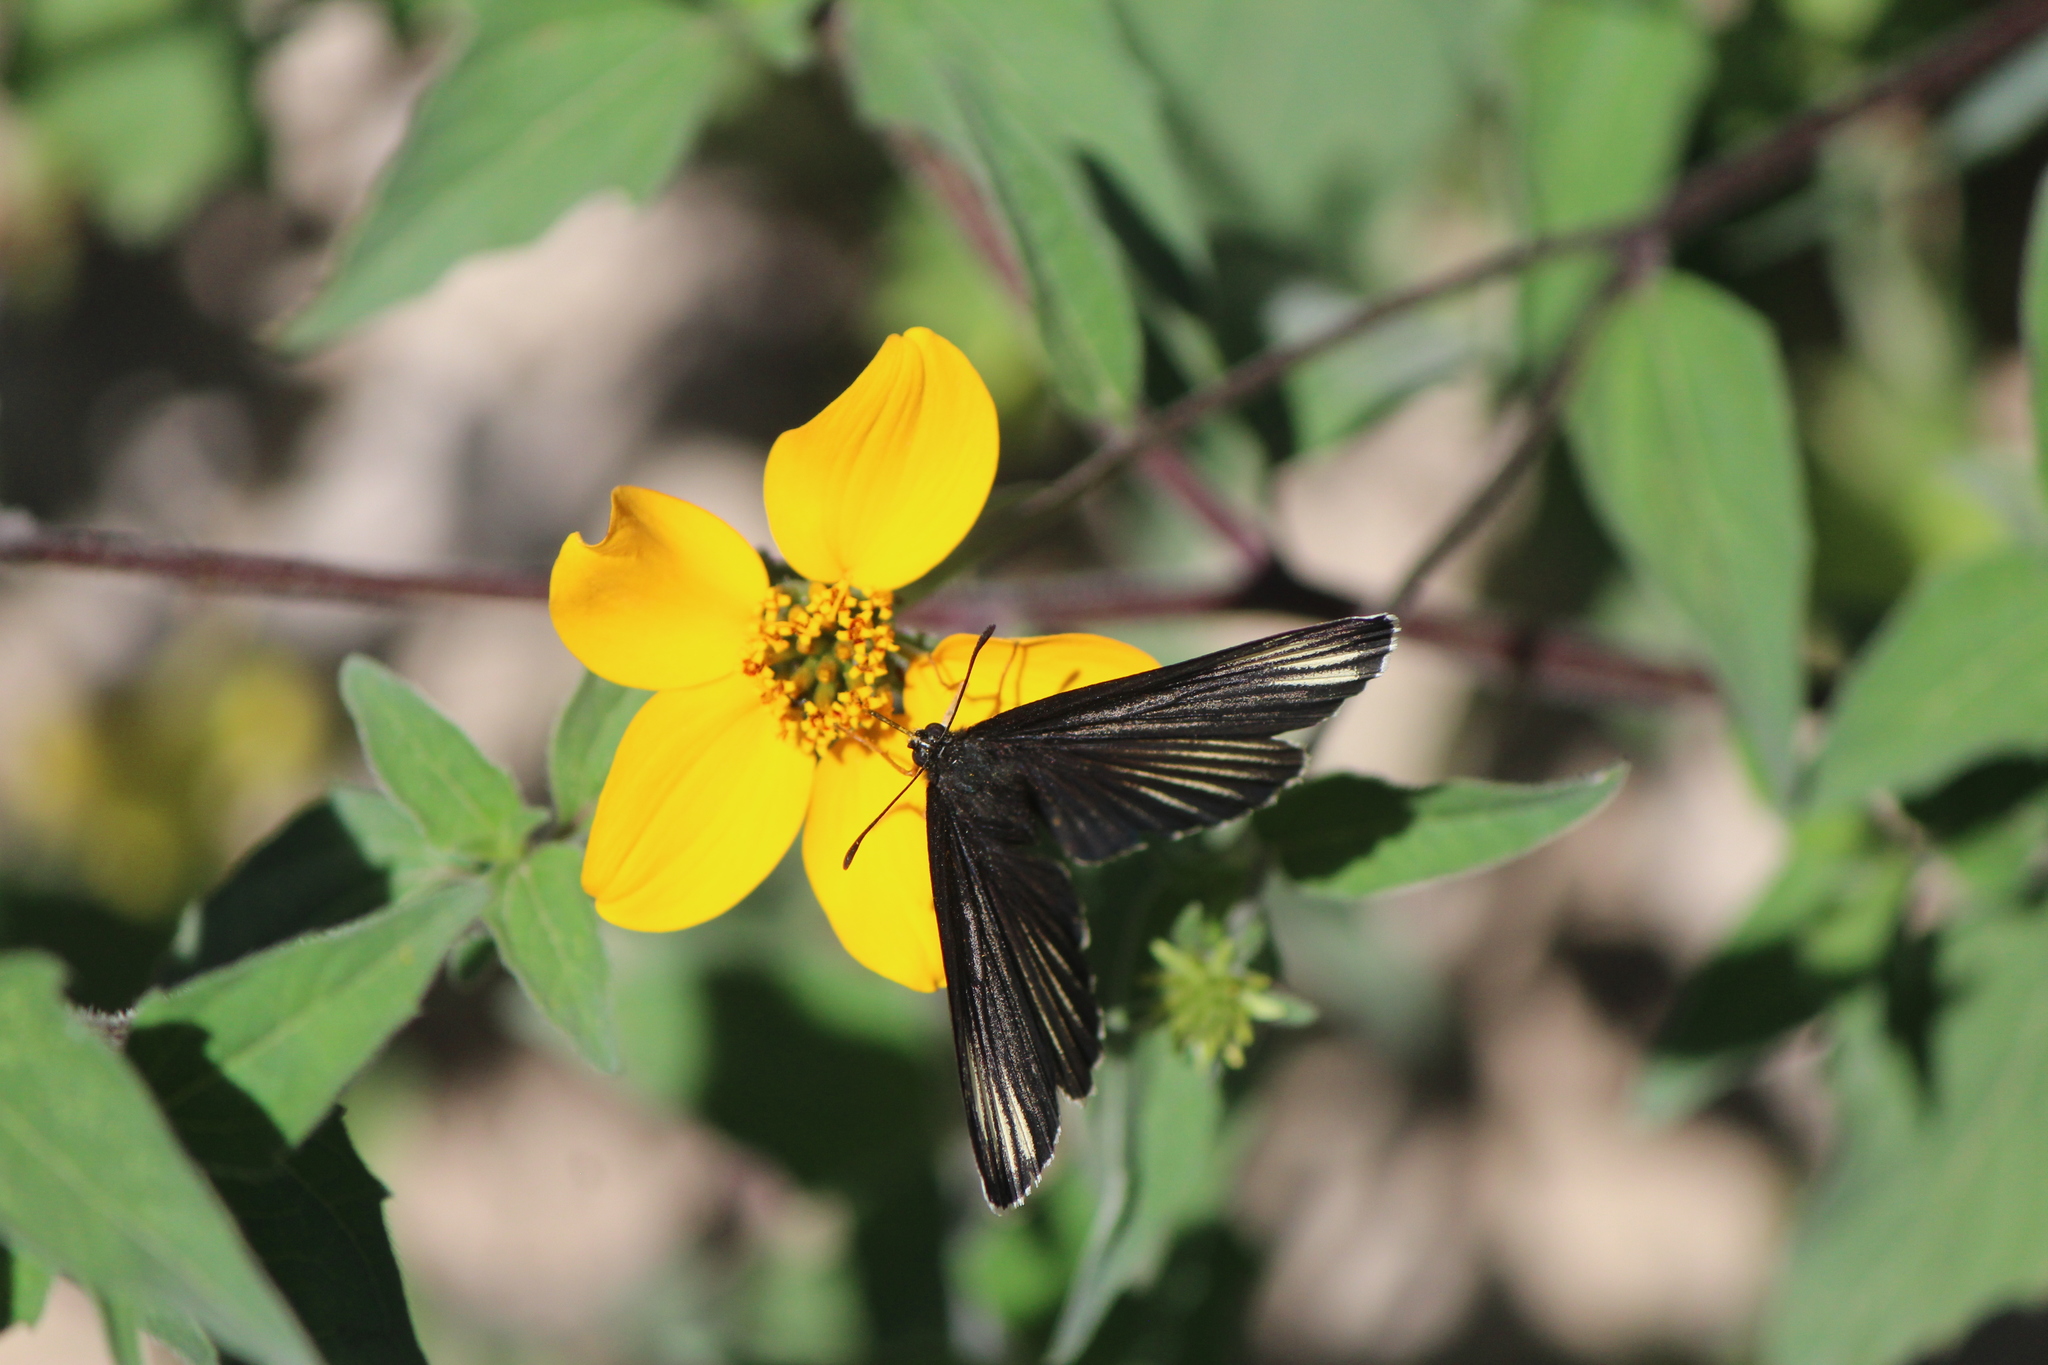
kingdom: Animalia
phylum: Arthropoda
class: Insecta
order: Lepidoptera
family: Nymphalidae
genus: Chlosyne
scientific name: Chlosyne ehrenbergii
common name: White-rayed patch
